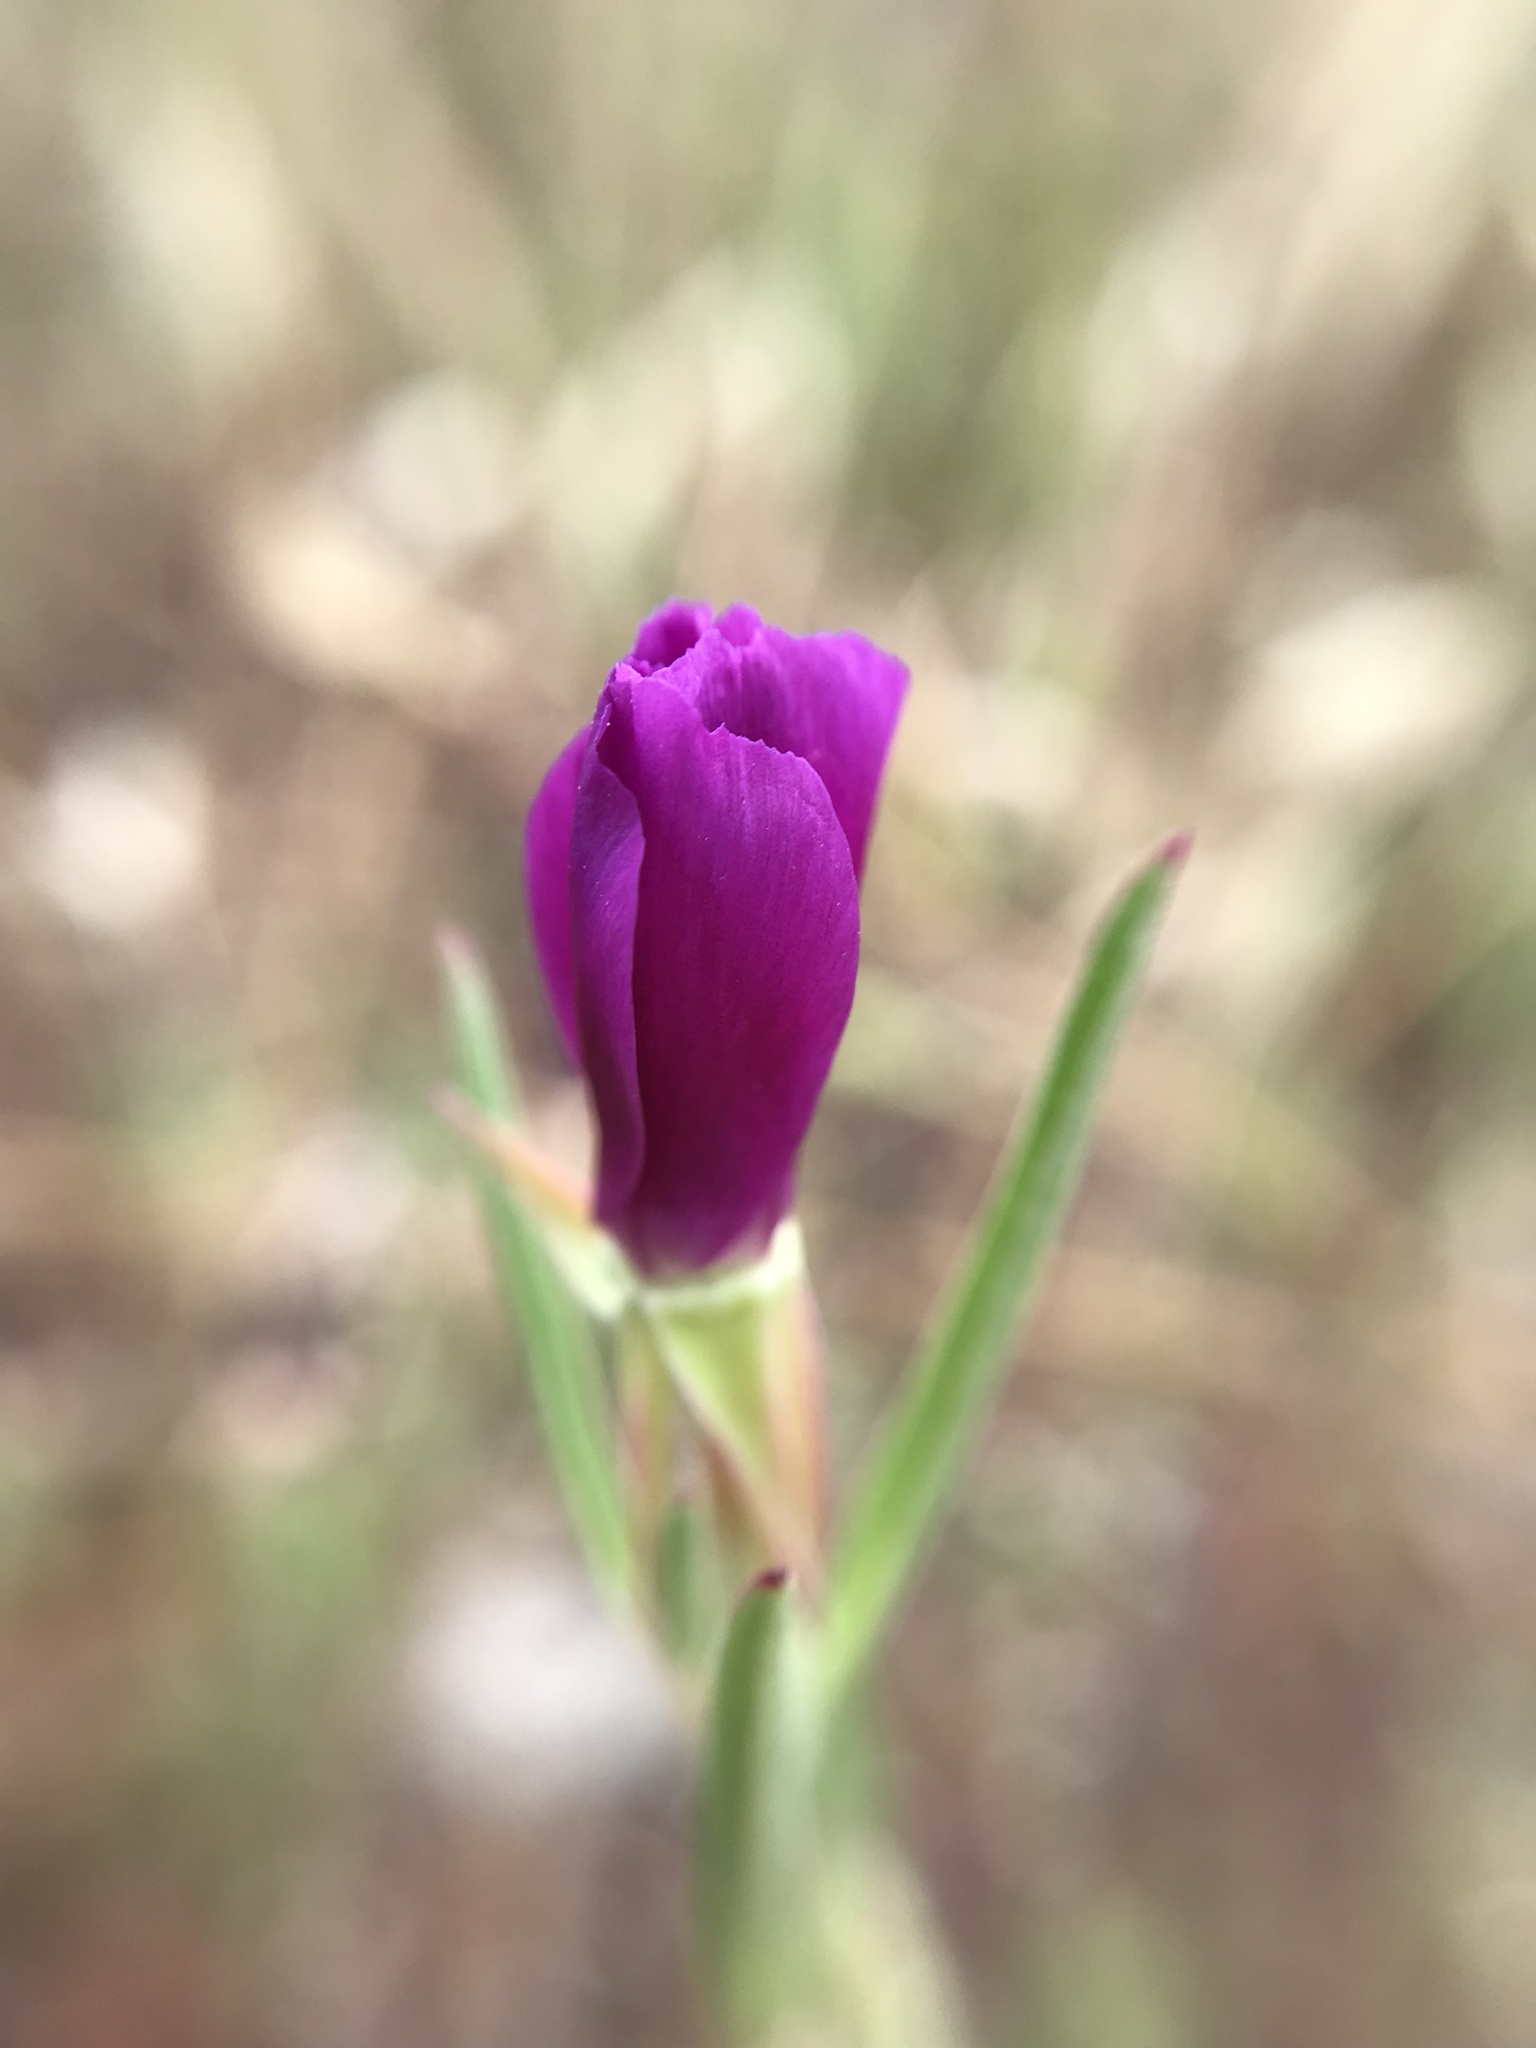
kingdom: Plantae
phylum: Tracheophyta
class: Magnoliopsida
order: Myrtales
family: Onagraceae
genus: Clarkia
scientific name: Clarkia purpurea
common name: Purple clarkia
